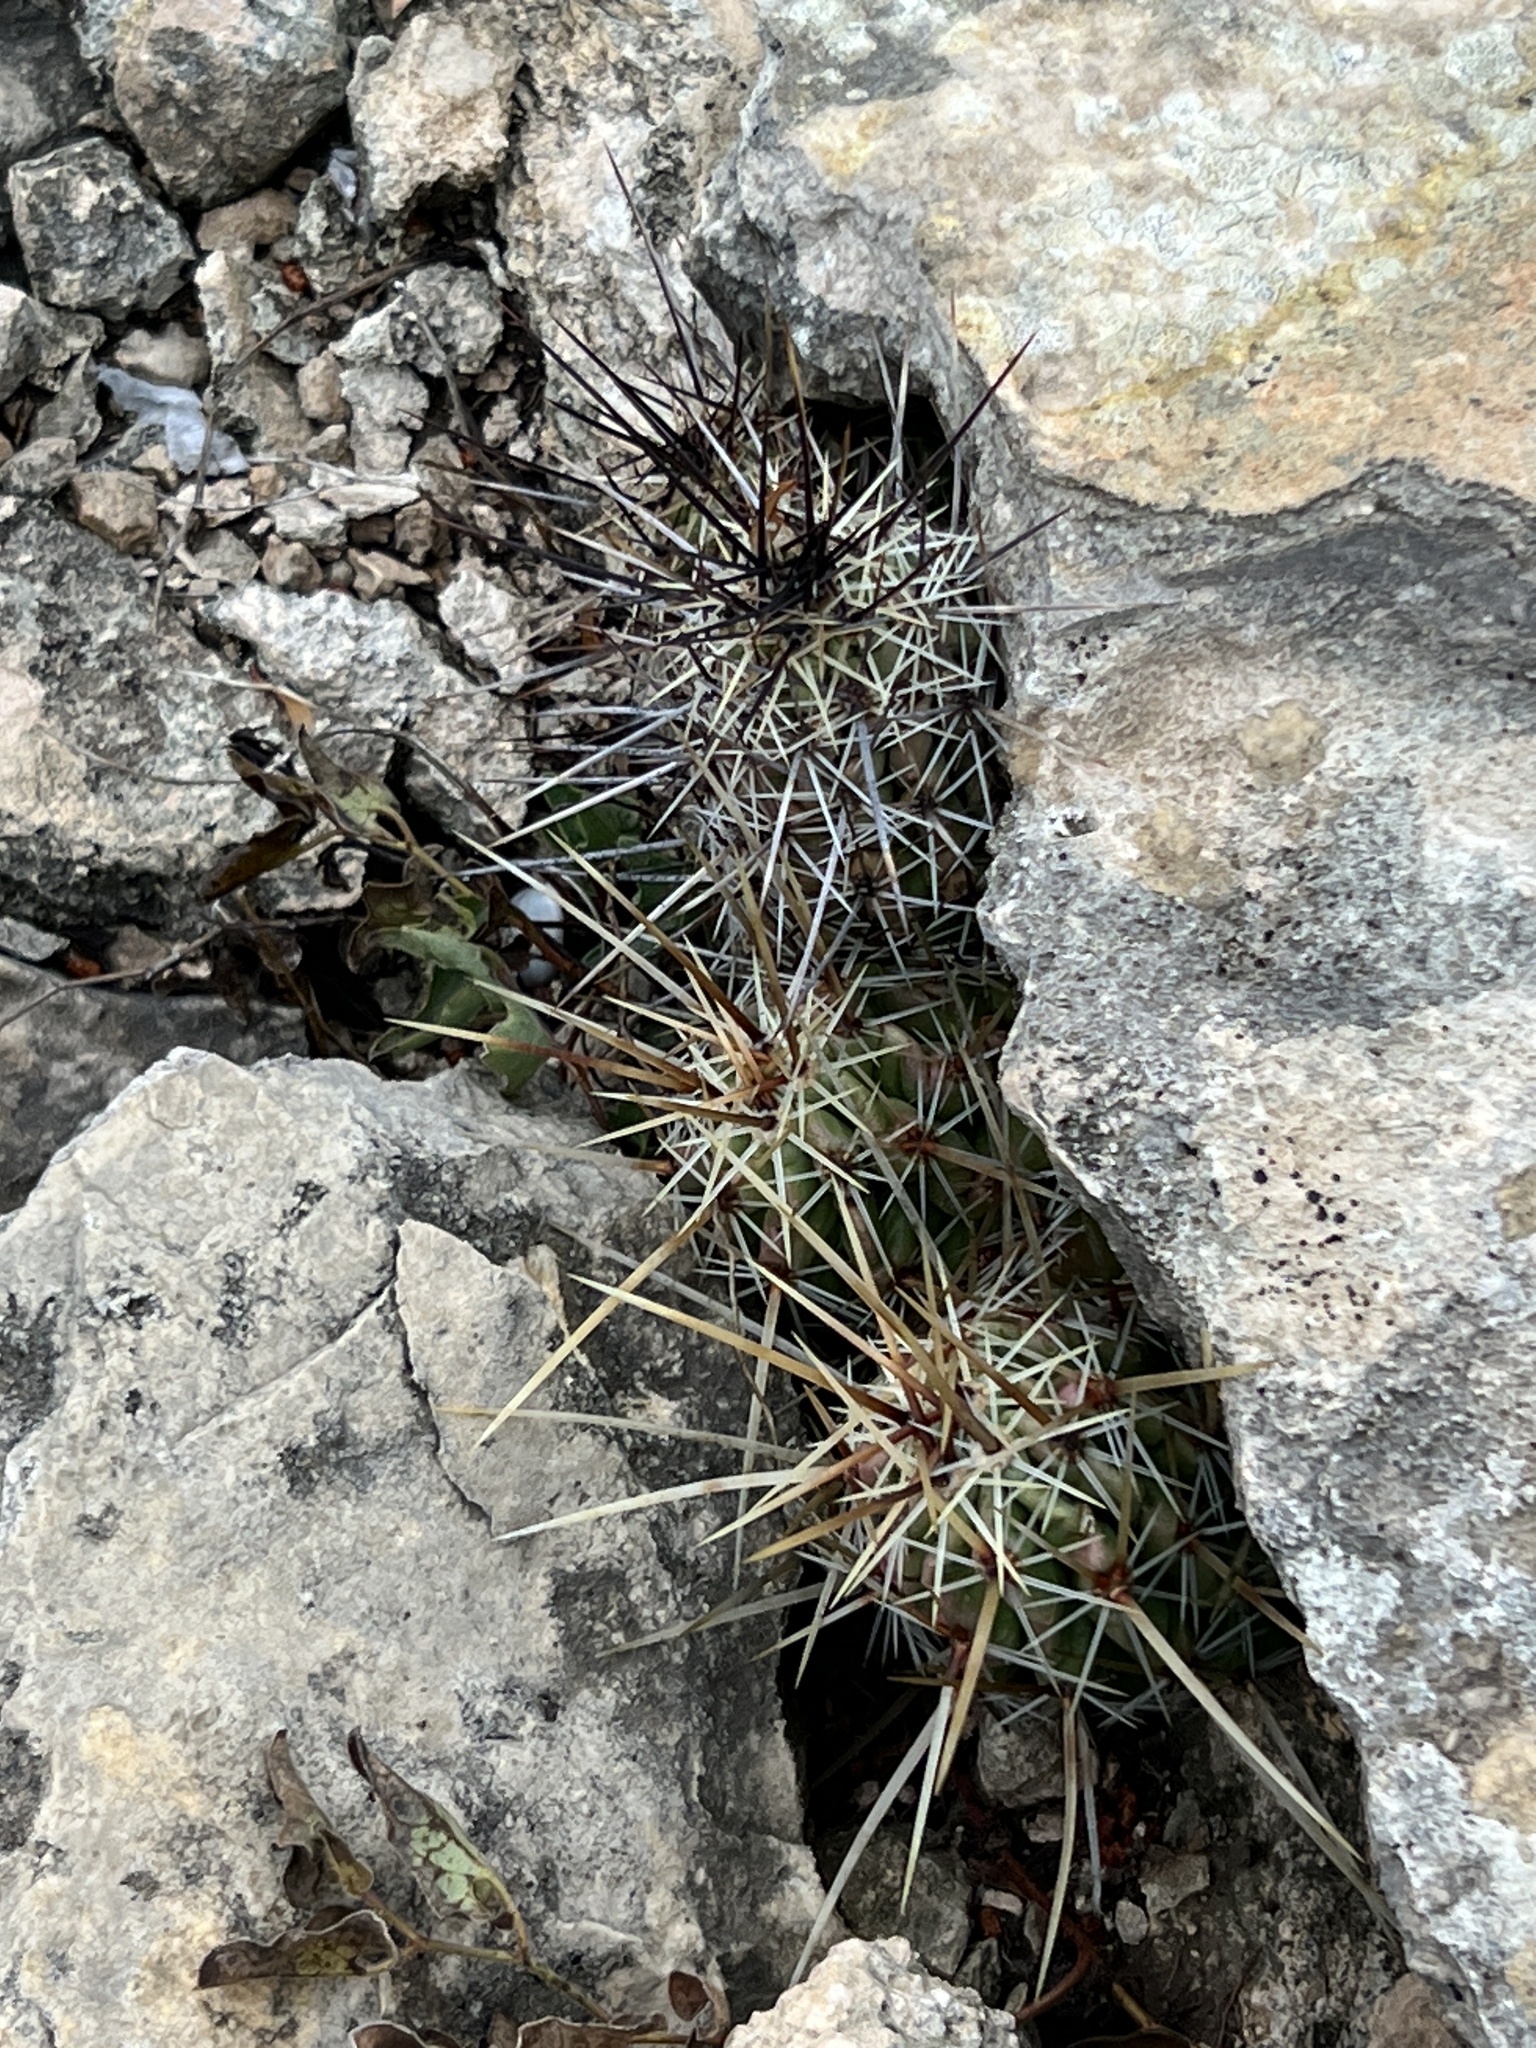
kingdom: Plantae
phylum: Tracheophyta
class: Magnoliopsida
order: Caryophyllales
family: Cactaceae
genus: Echinocereus
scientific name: Echinocereus enneacanthus
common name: Pitaya
